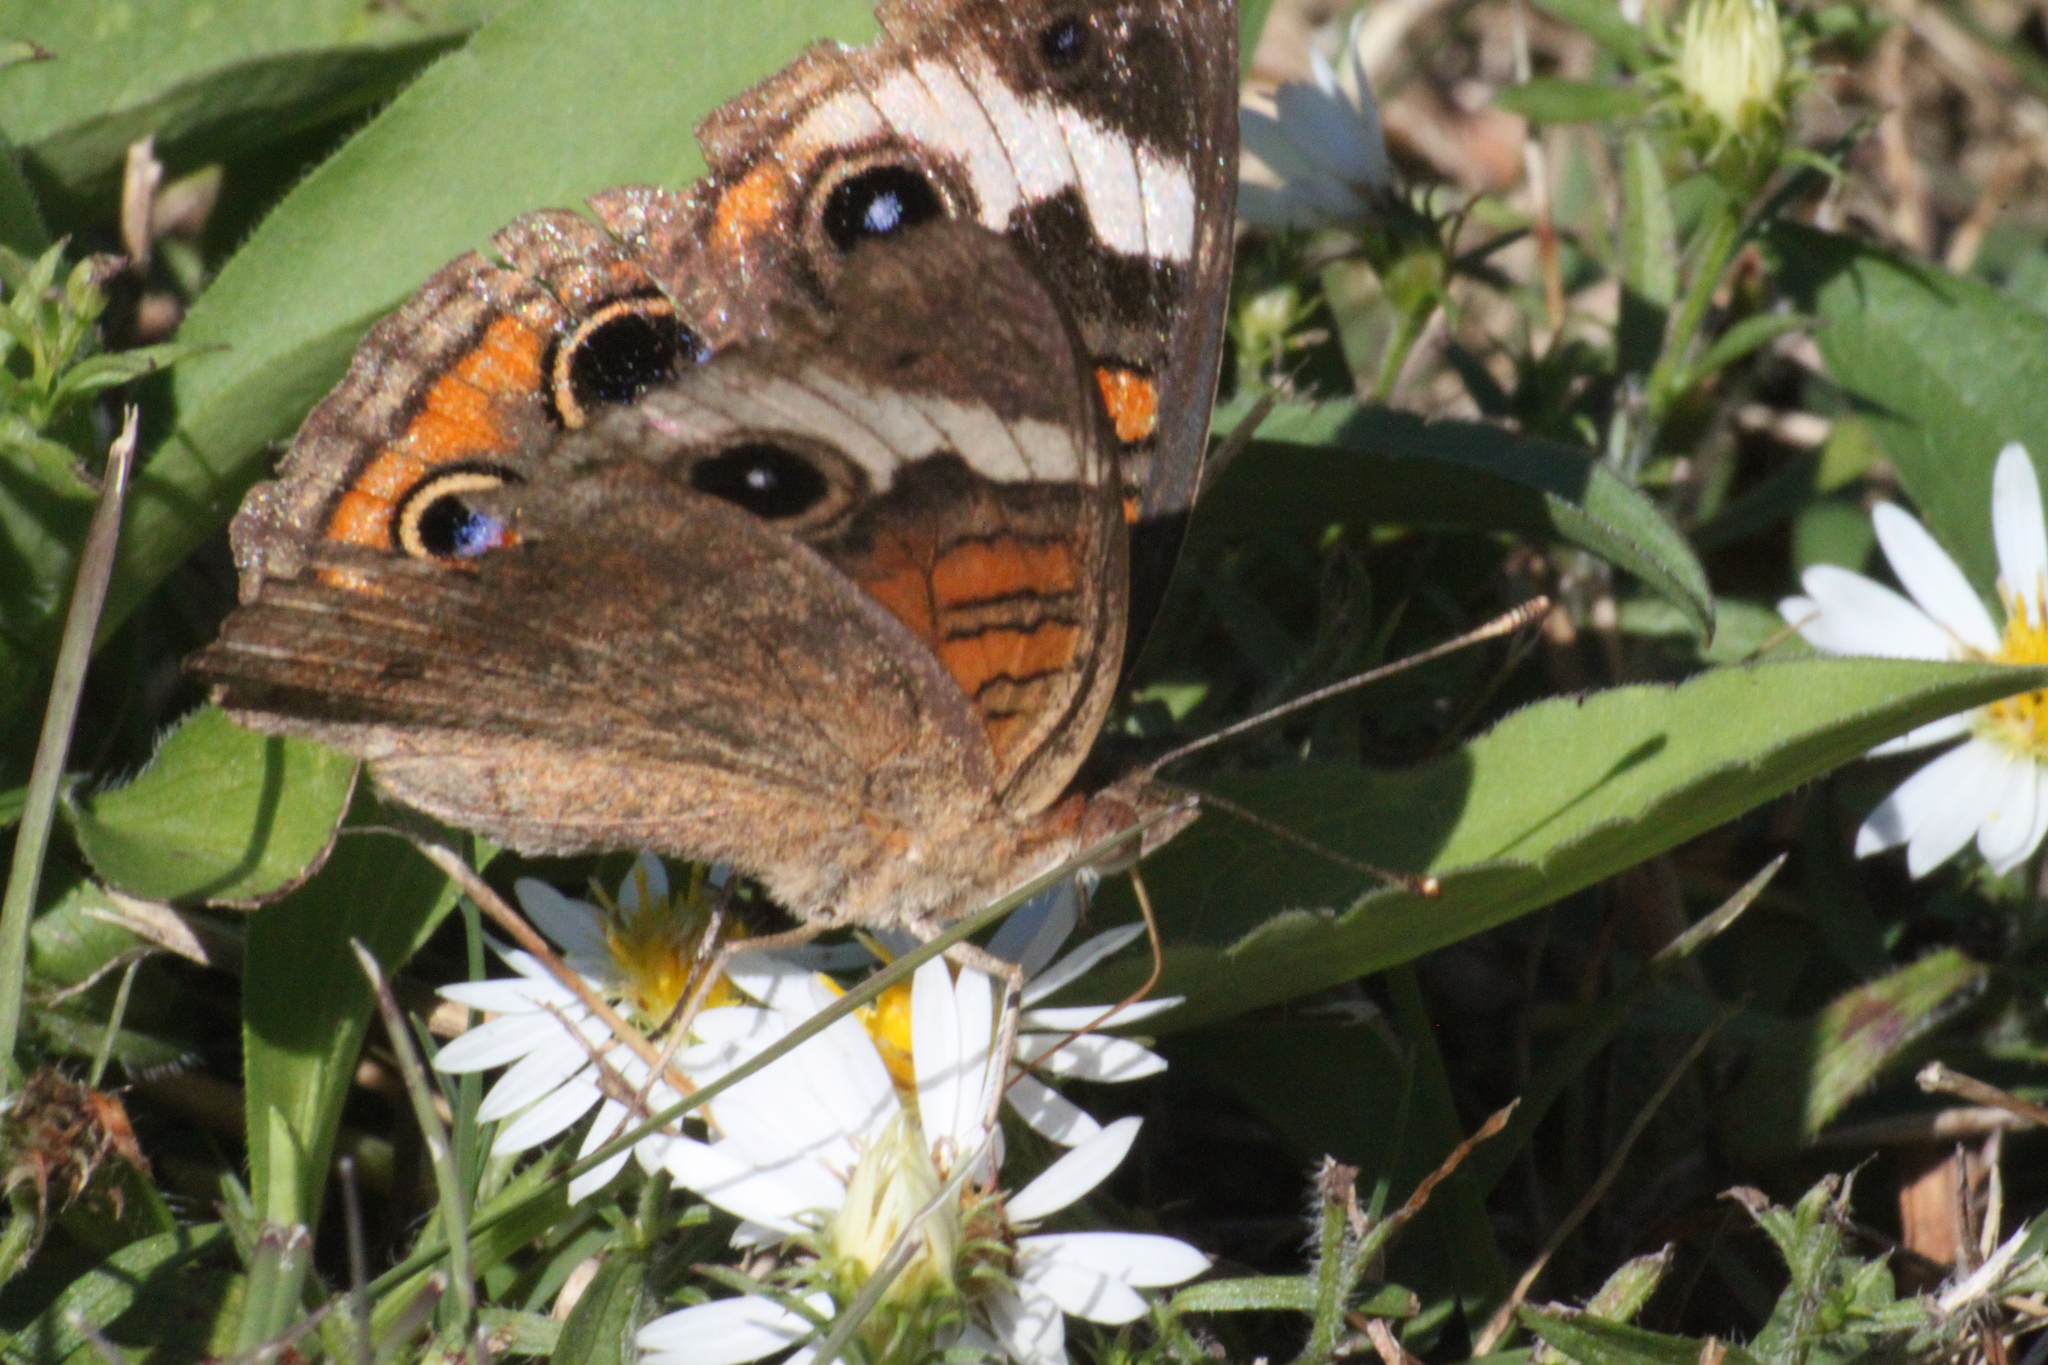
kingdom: Animalia
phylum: Arthropoda
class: Insecta
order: Lepidoptera
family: Nymphalidae
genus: Junonia
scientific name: Junonia coenia
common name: Common buckeye
